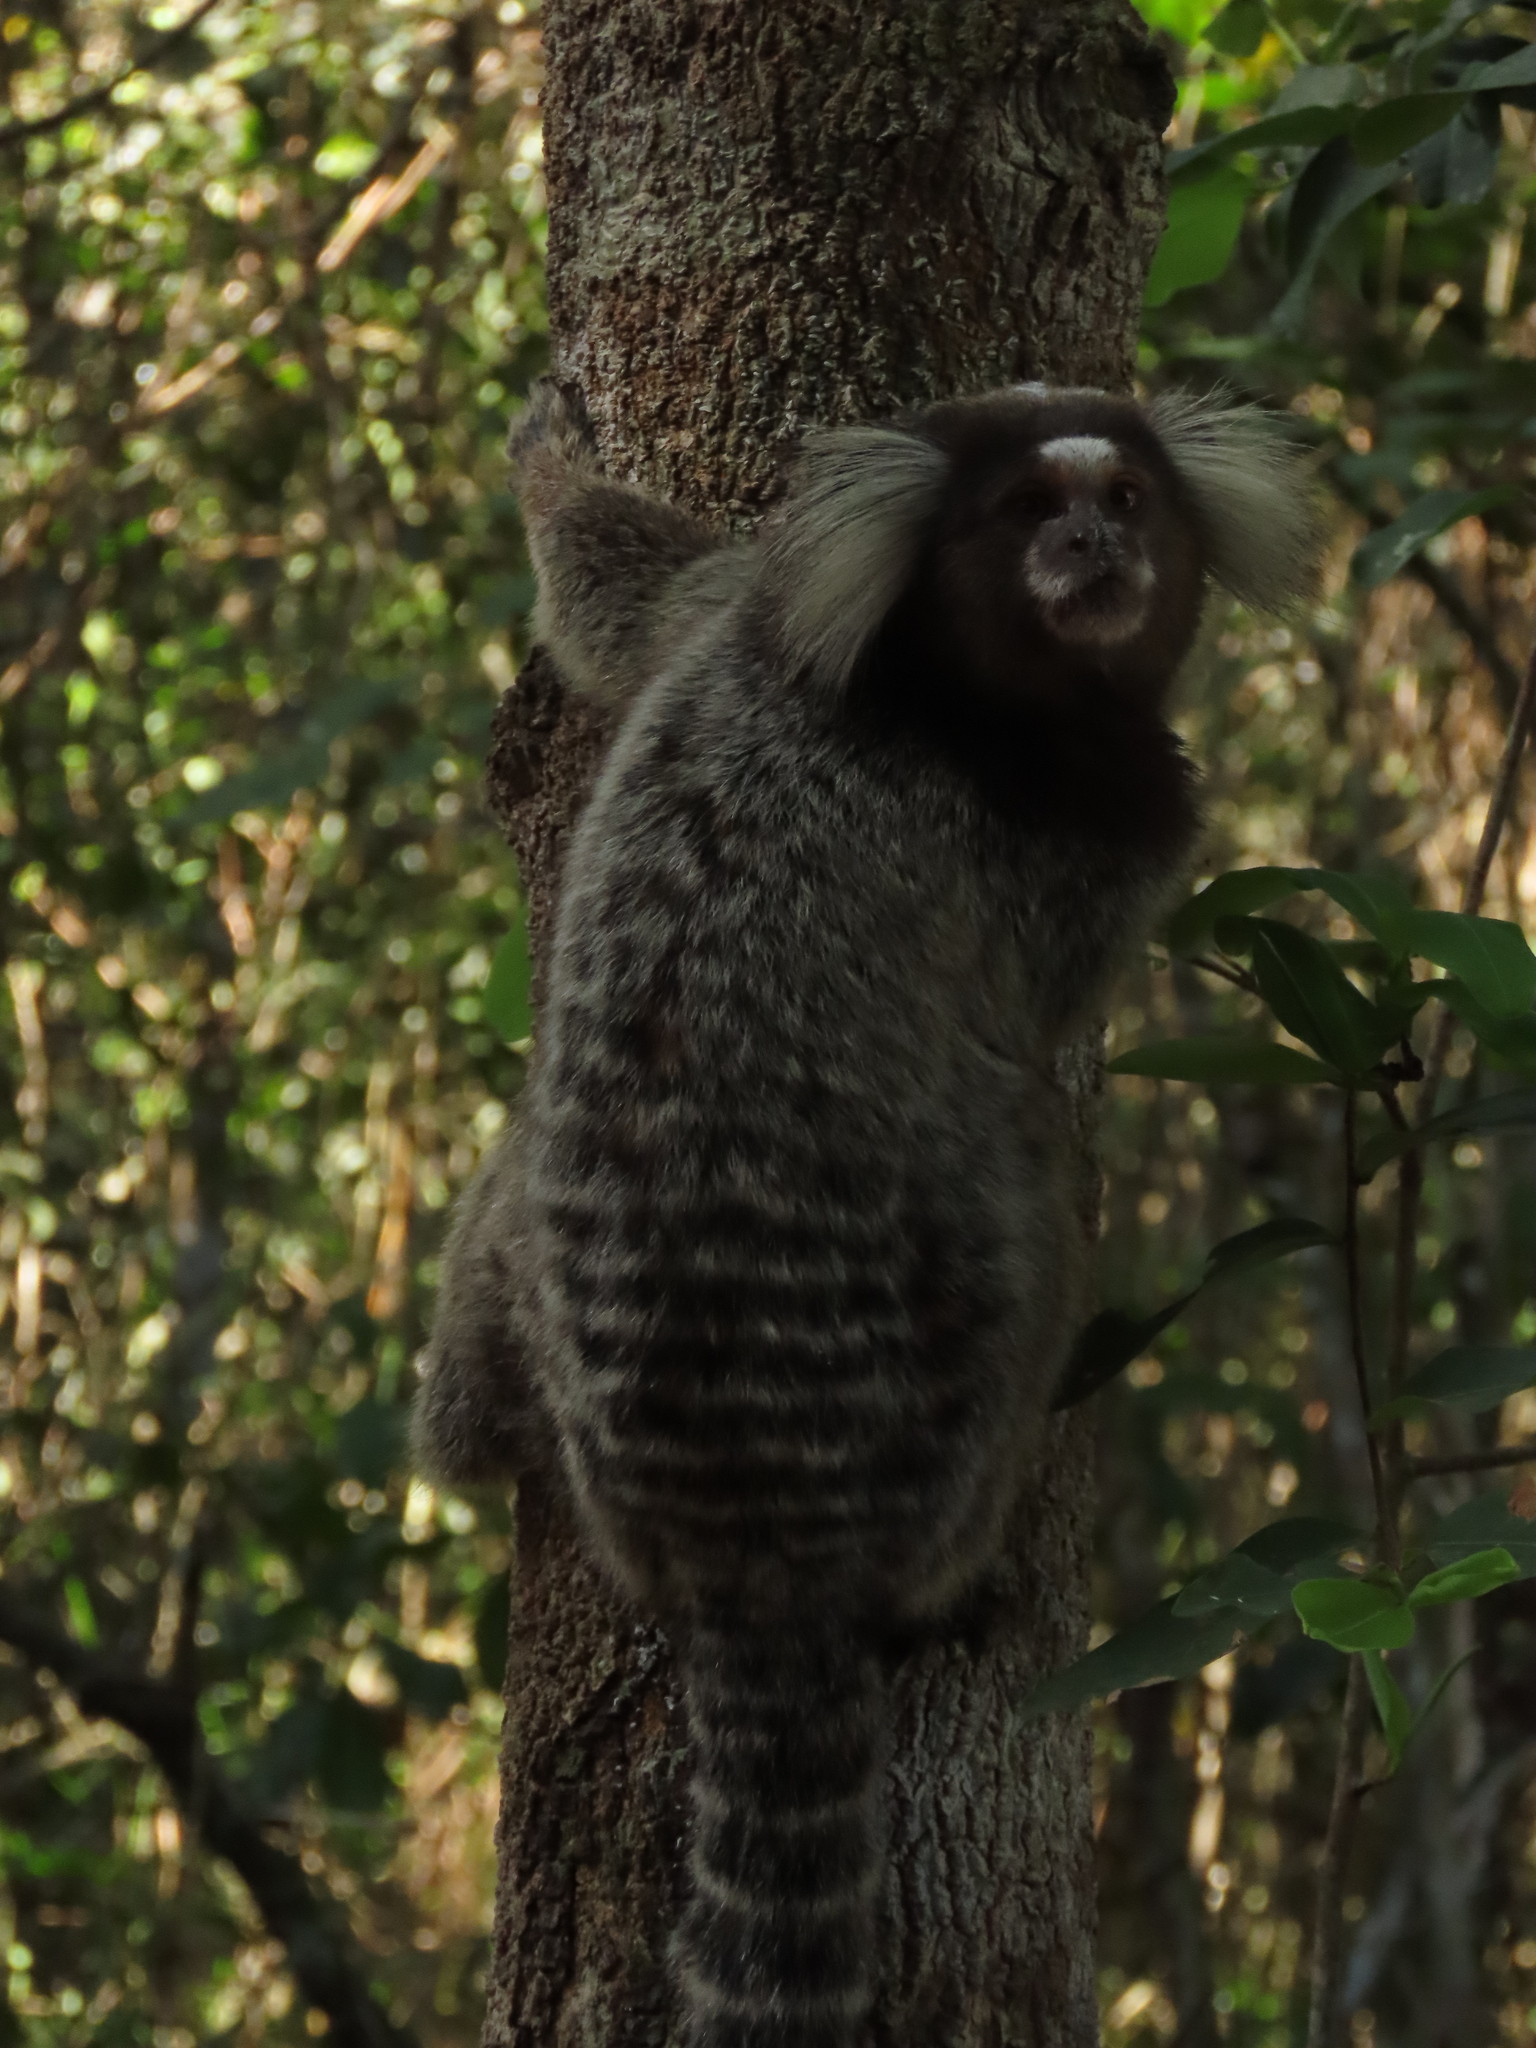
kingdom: Animalia
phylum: Chordata
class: Mammalia
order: Primates
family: Callitrichidae
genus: Callithrix
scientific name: Callithrix jacchus
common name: Common marmoset
